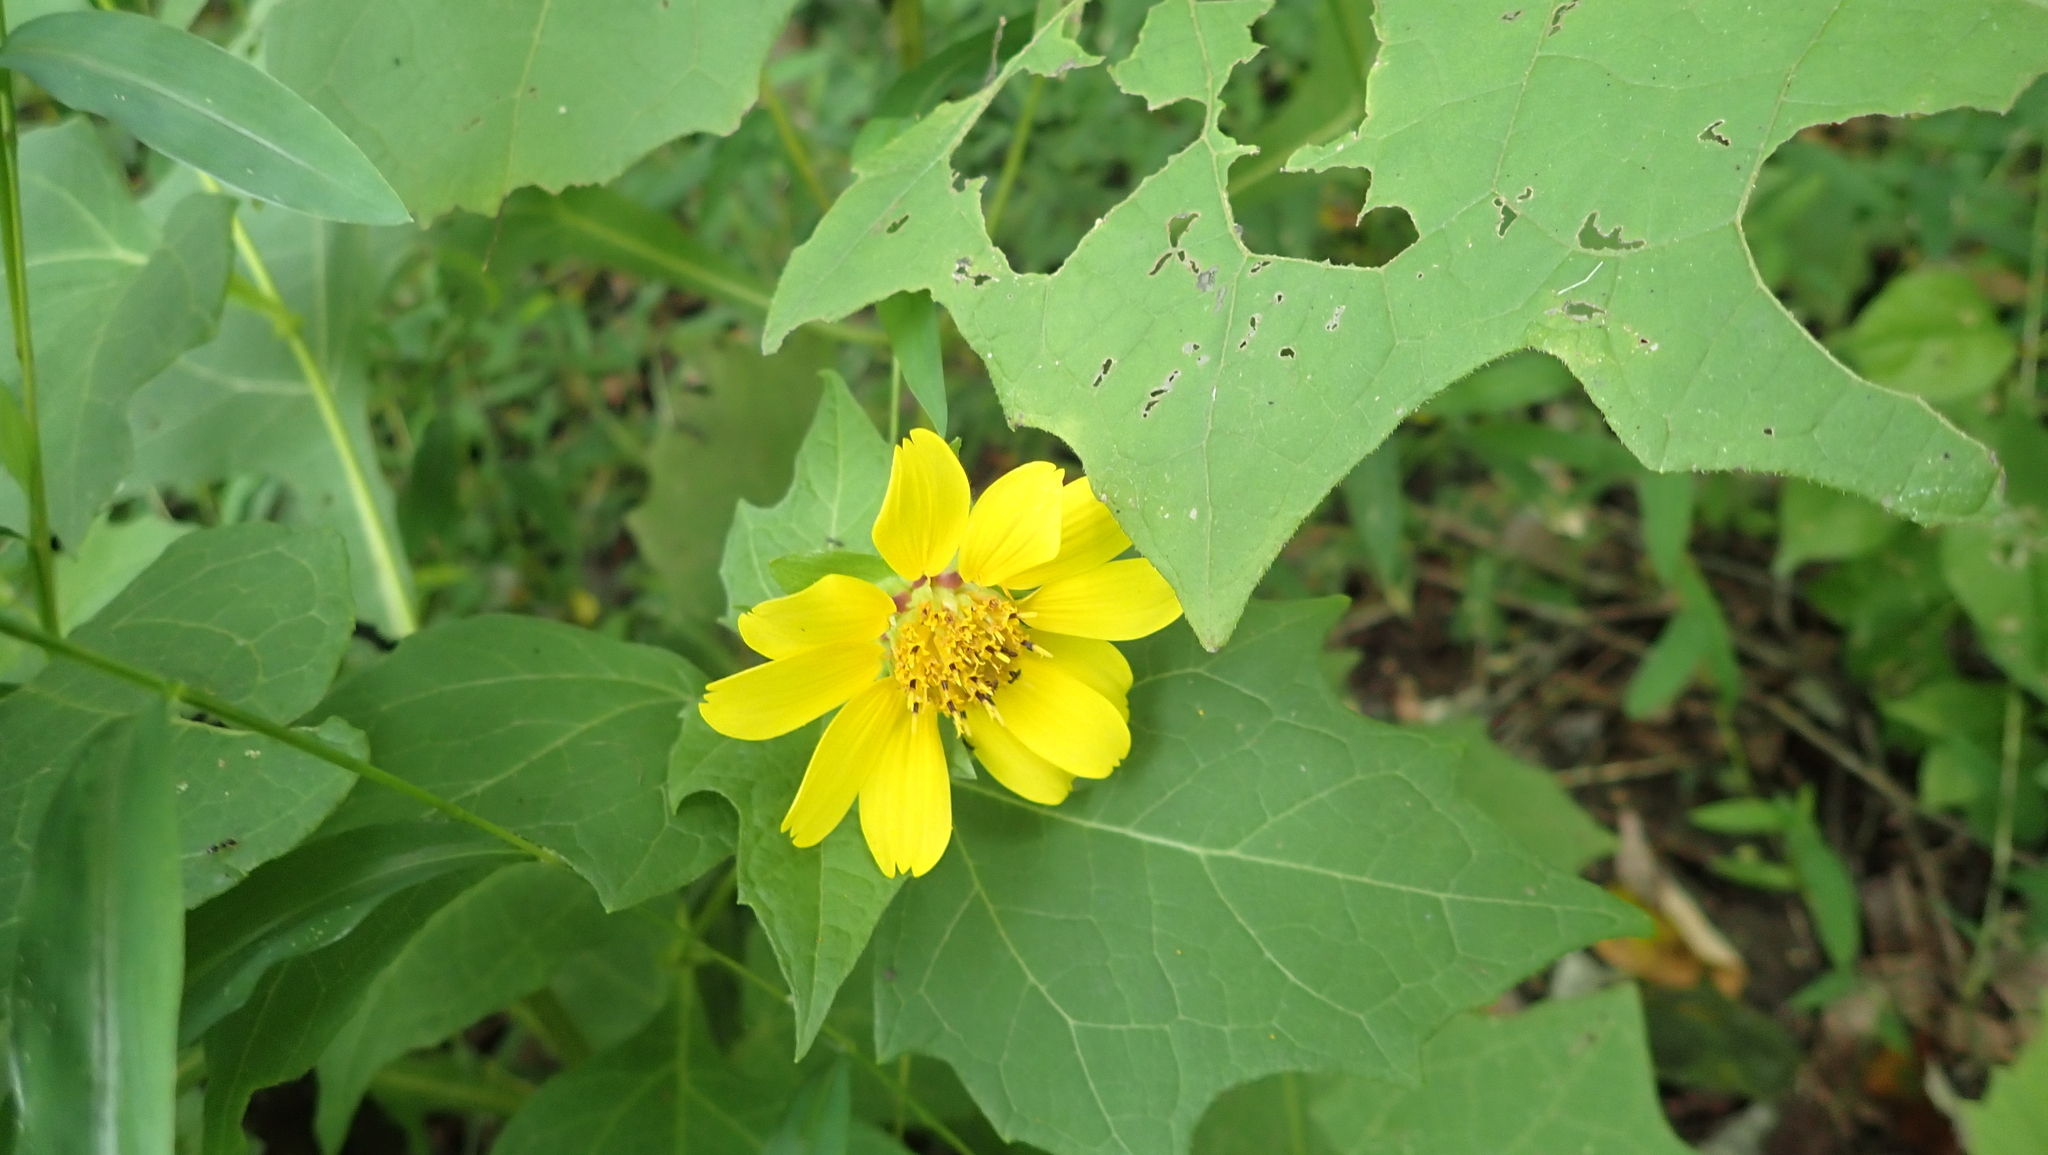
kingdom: Plantae
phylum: Tracheophyta
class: Magnoliopsida
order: Asterales
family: Asteraceae
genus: Smallanthus
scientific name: Smallanthus uvedalia
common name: Bear's-foot
